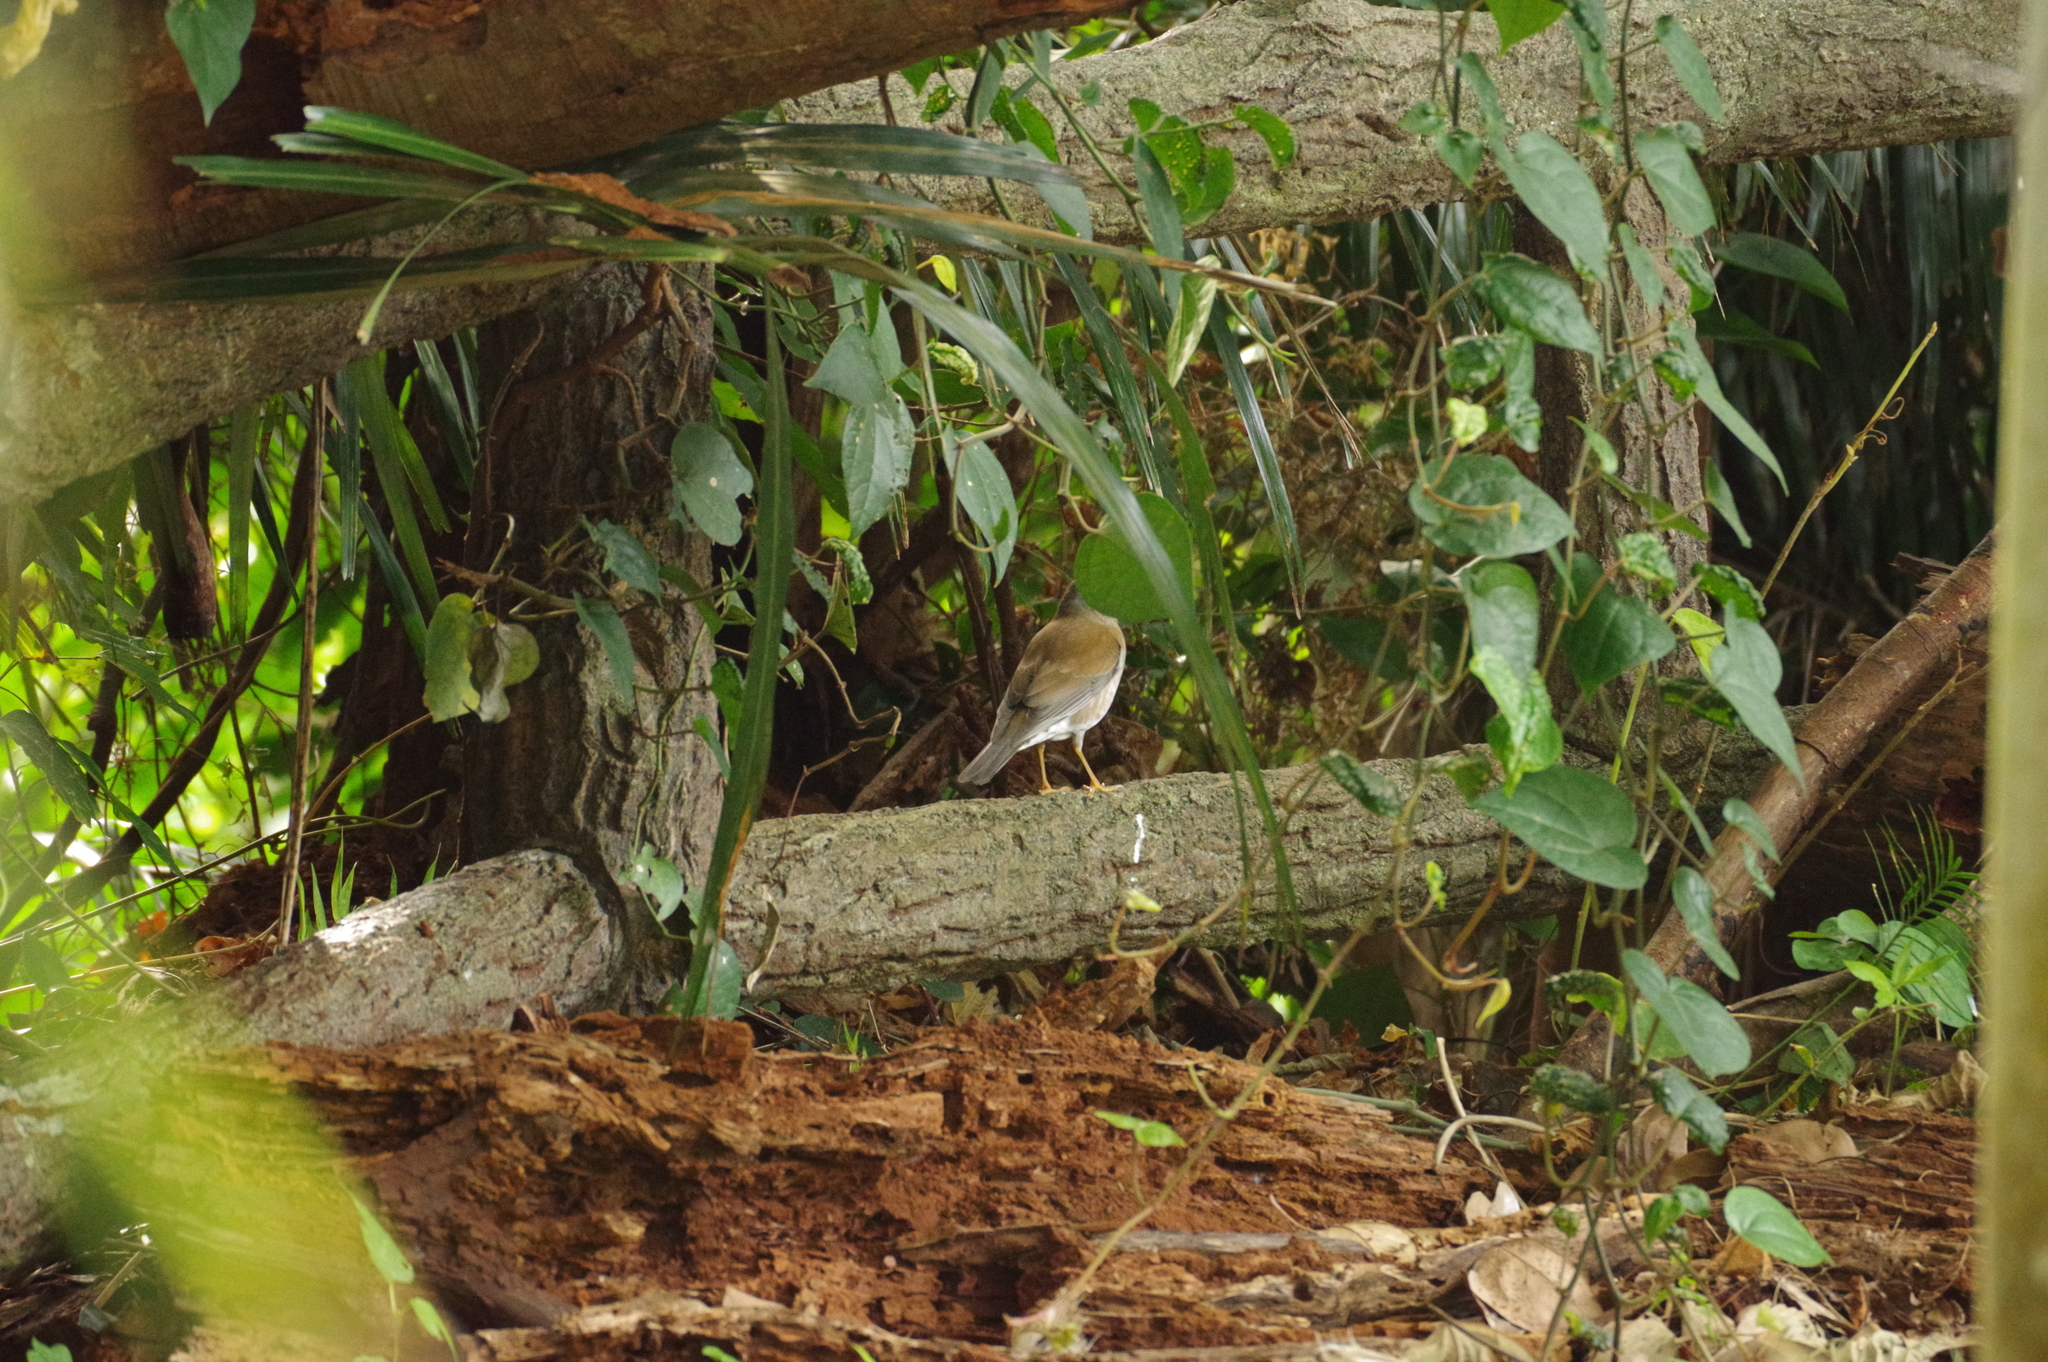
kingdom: Animalia
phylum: Chordata
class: Aves
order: Passeriformes
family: Turdidae
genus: Turdus
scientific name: Turdus pallidus
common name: Pale thrush
